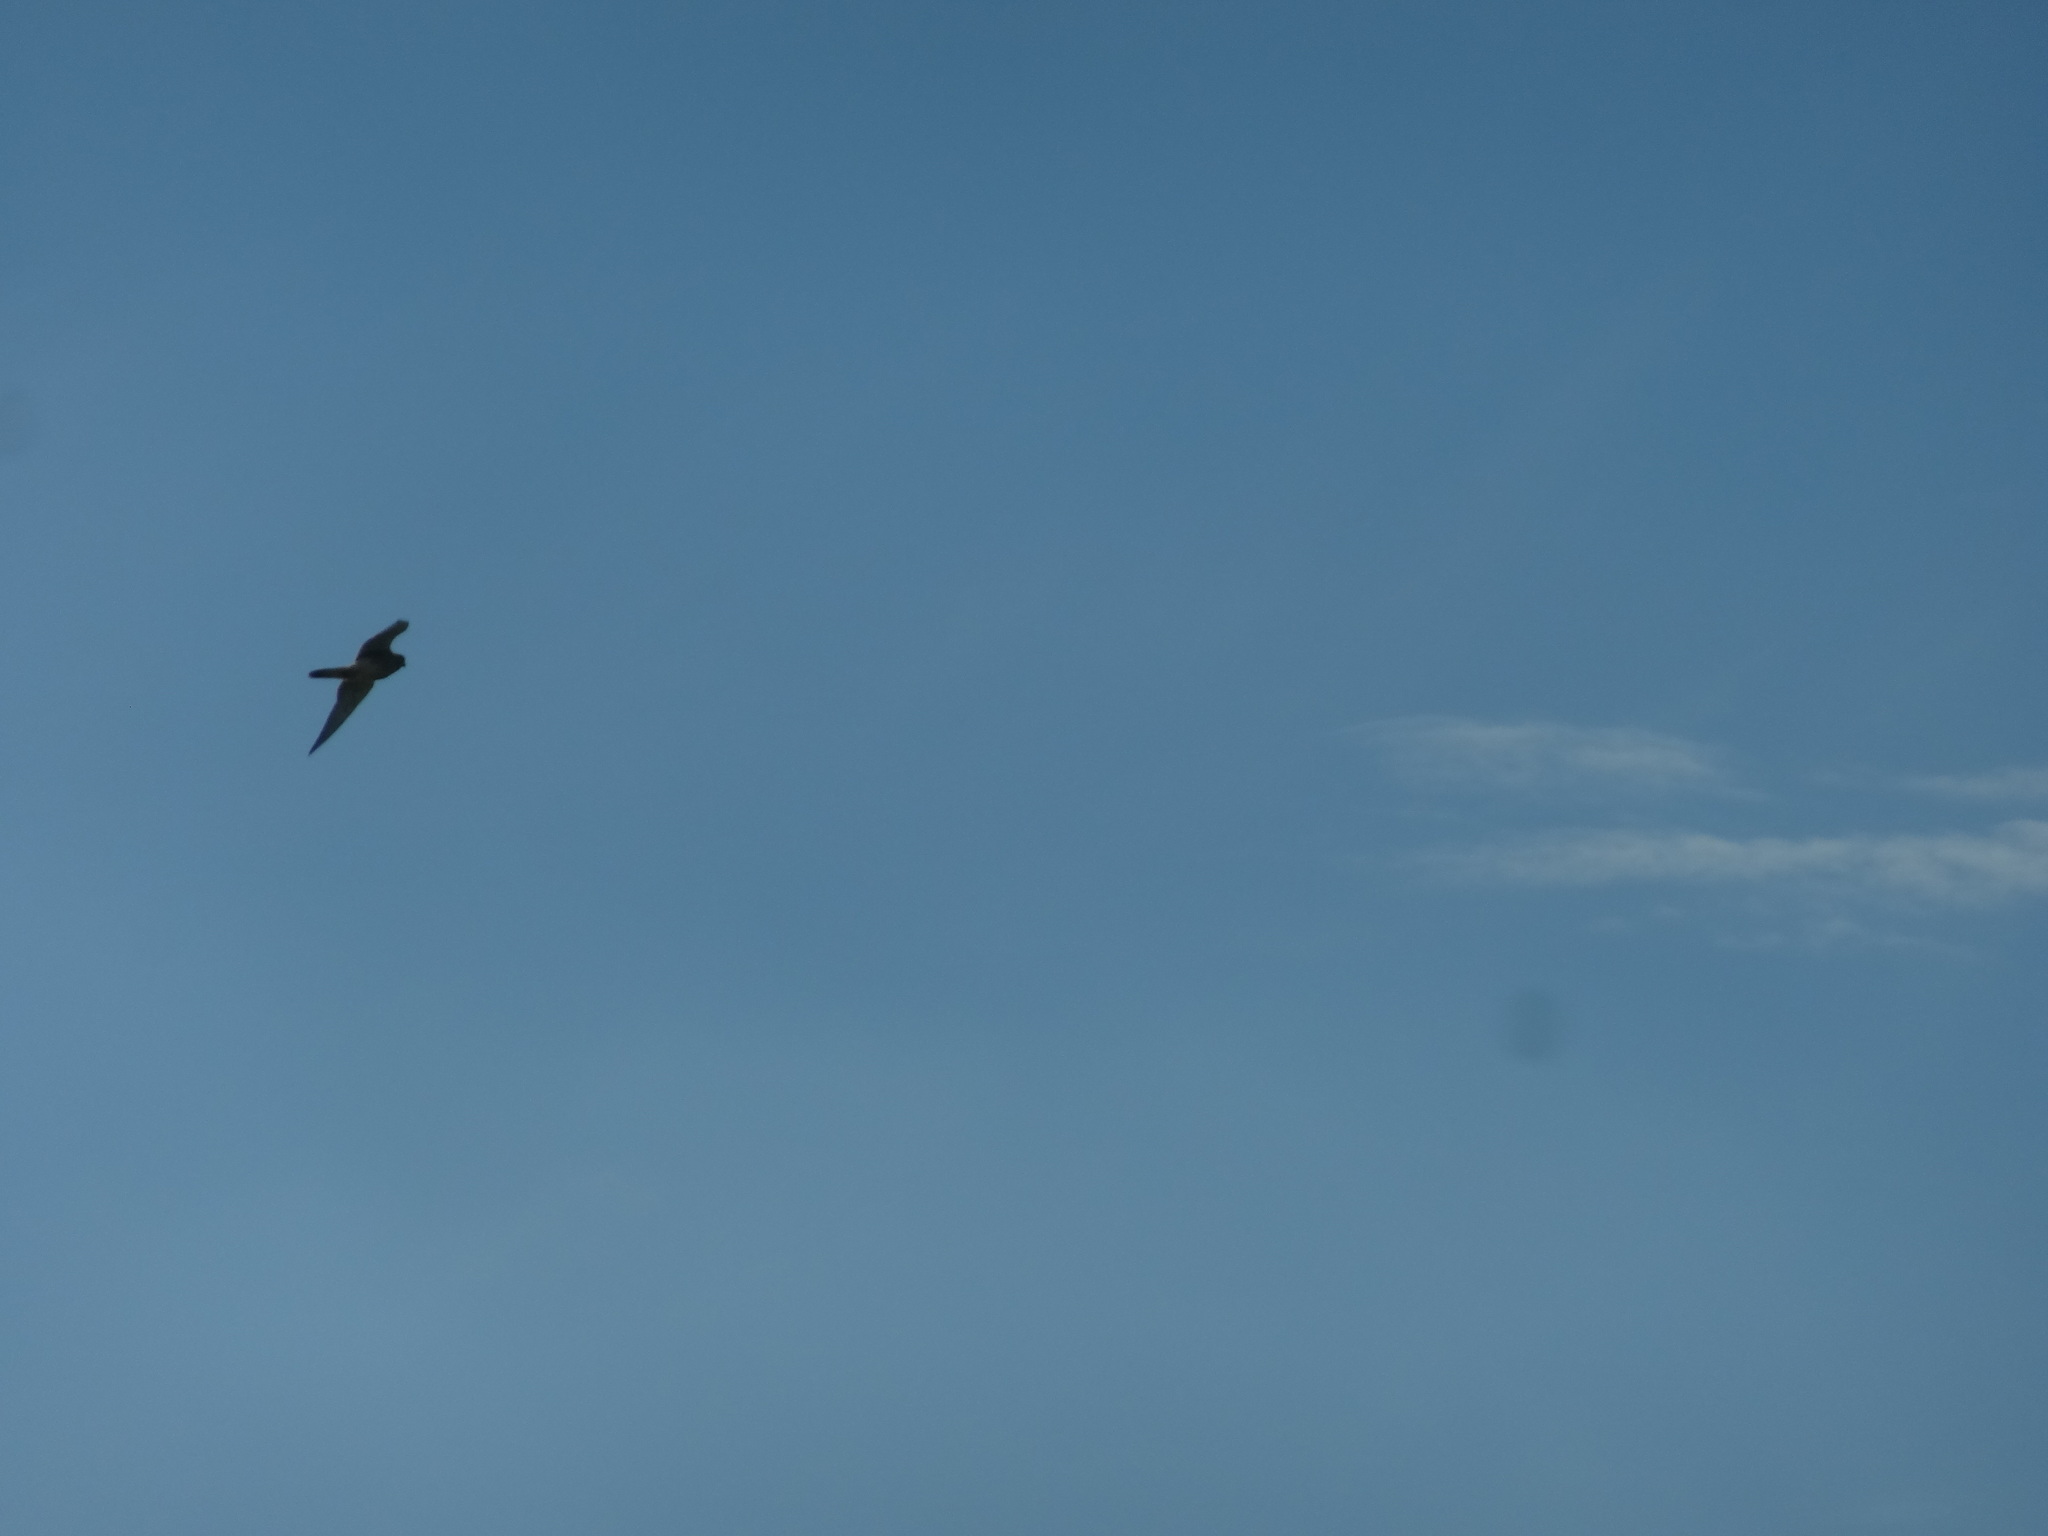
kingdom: Animalia
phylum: Chordata
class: Aves
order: Falconiformes
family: Falconidae
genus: Falco
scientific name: Falco tinnunculus
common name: Common kestrel
